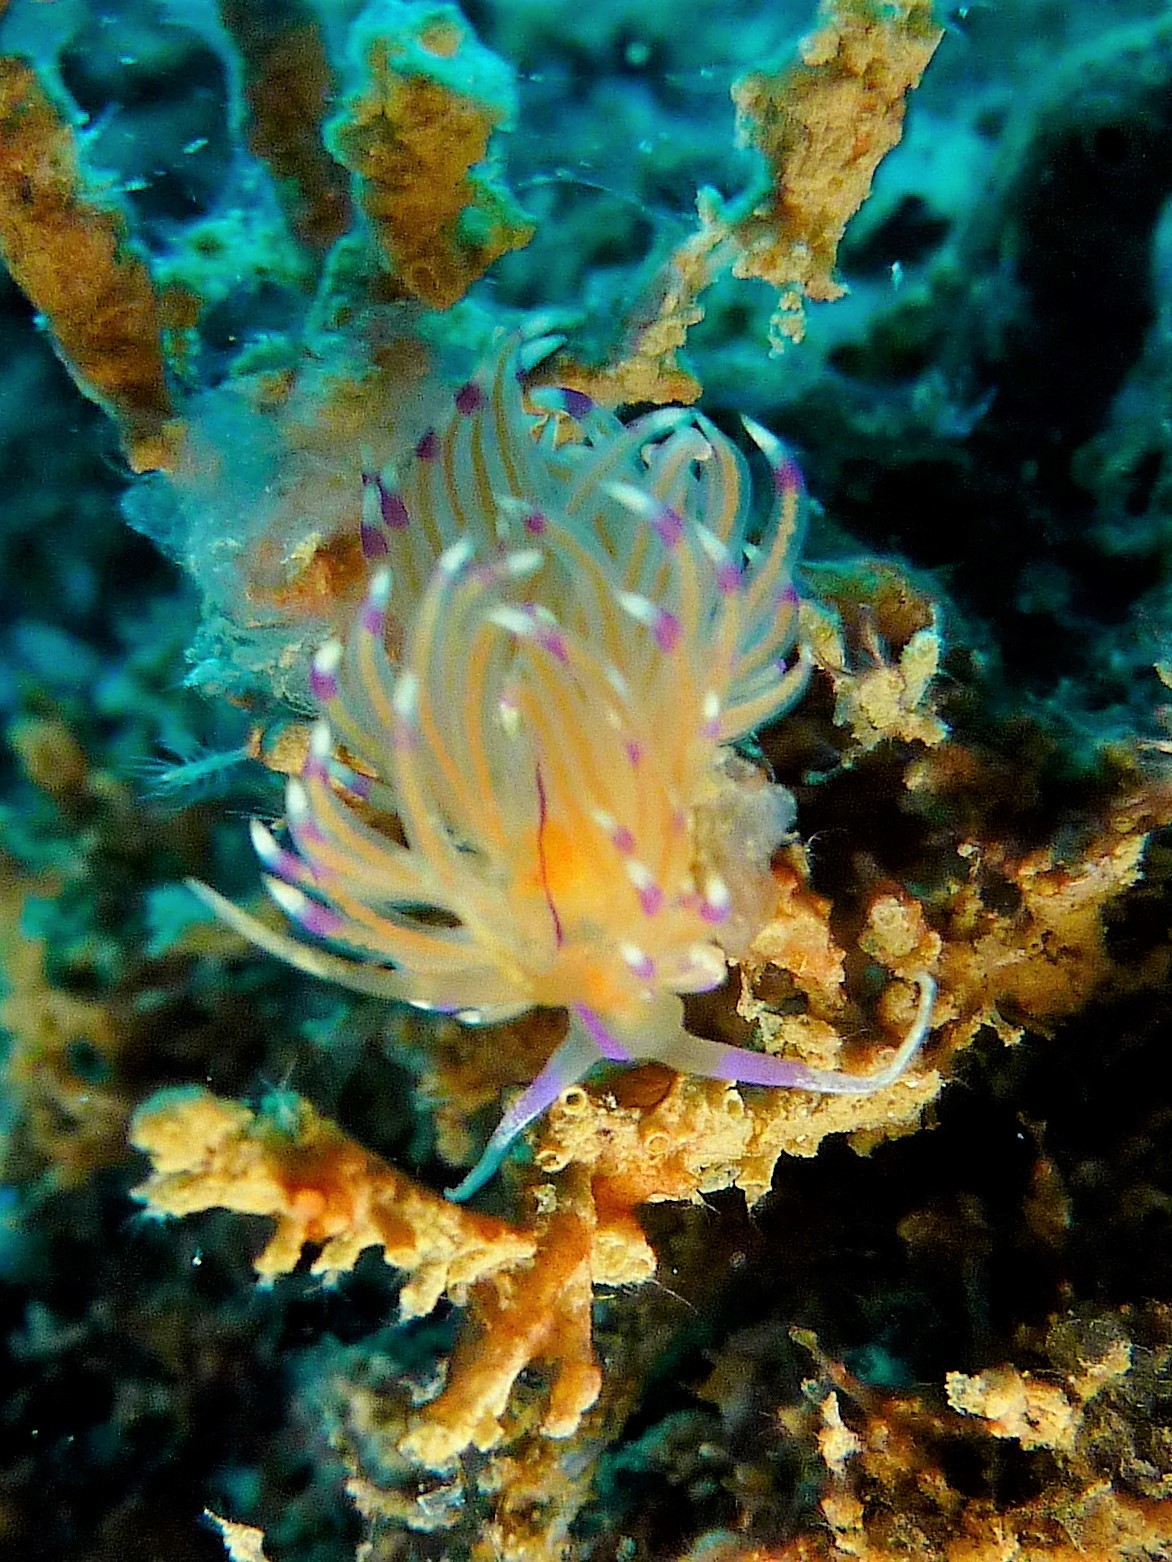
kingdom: Animalia
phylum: Mollusca
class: Gastropoda
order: Nudibranchia
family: Unidentiidae
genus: Unidentia
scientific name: Unidentia aliciae
